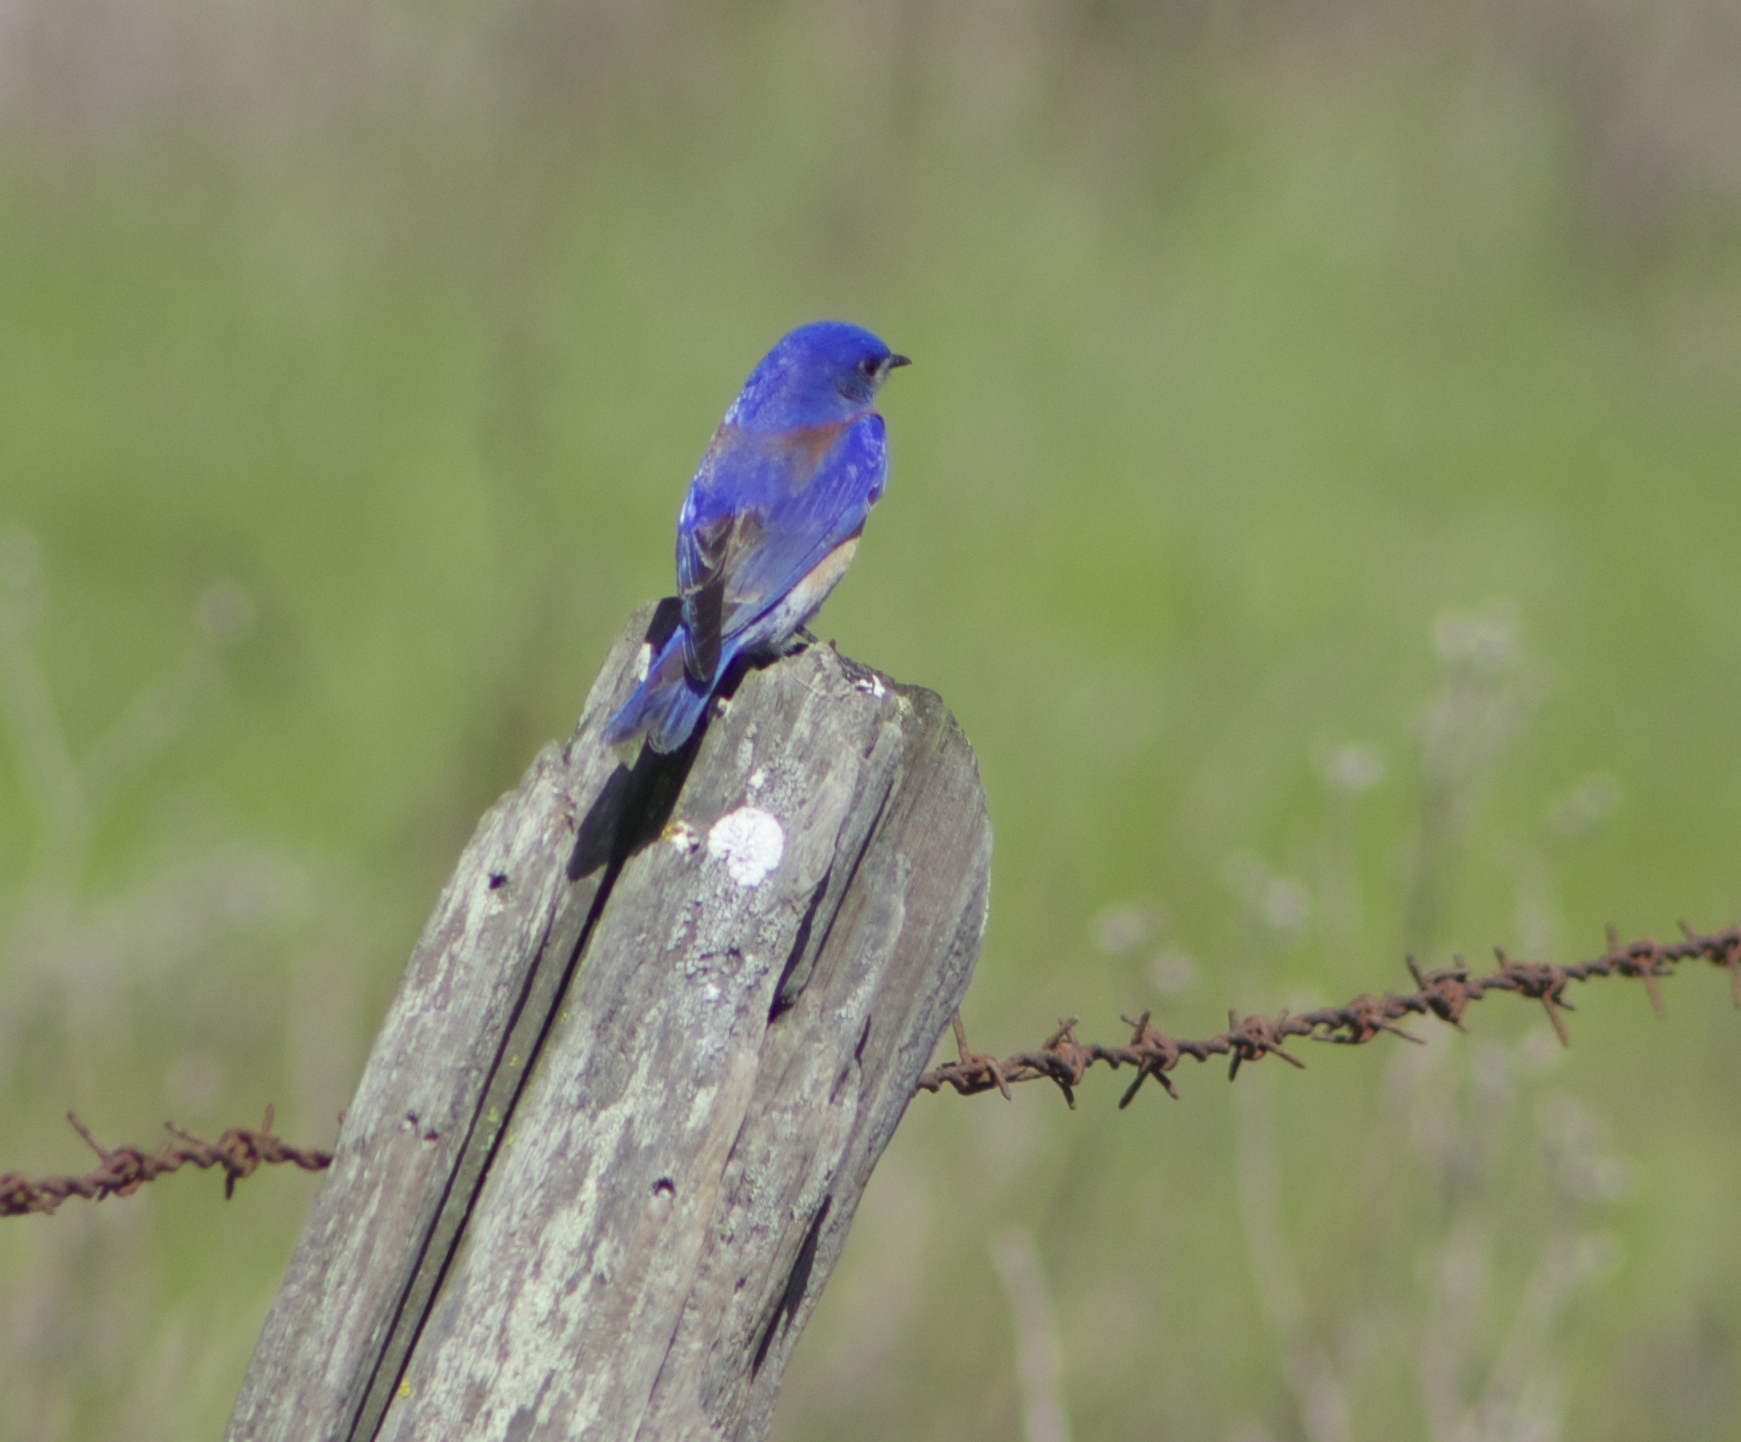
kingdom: Animalia
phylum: Chordata
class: Aves
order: Passeriformes
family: Turdidae
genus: Sialia
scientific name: Sialia mexicana
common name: Western bluebird
